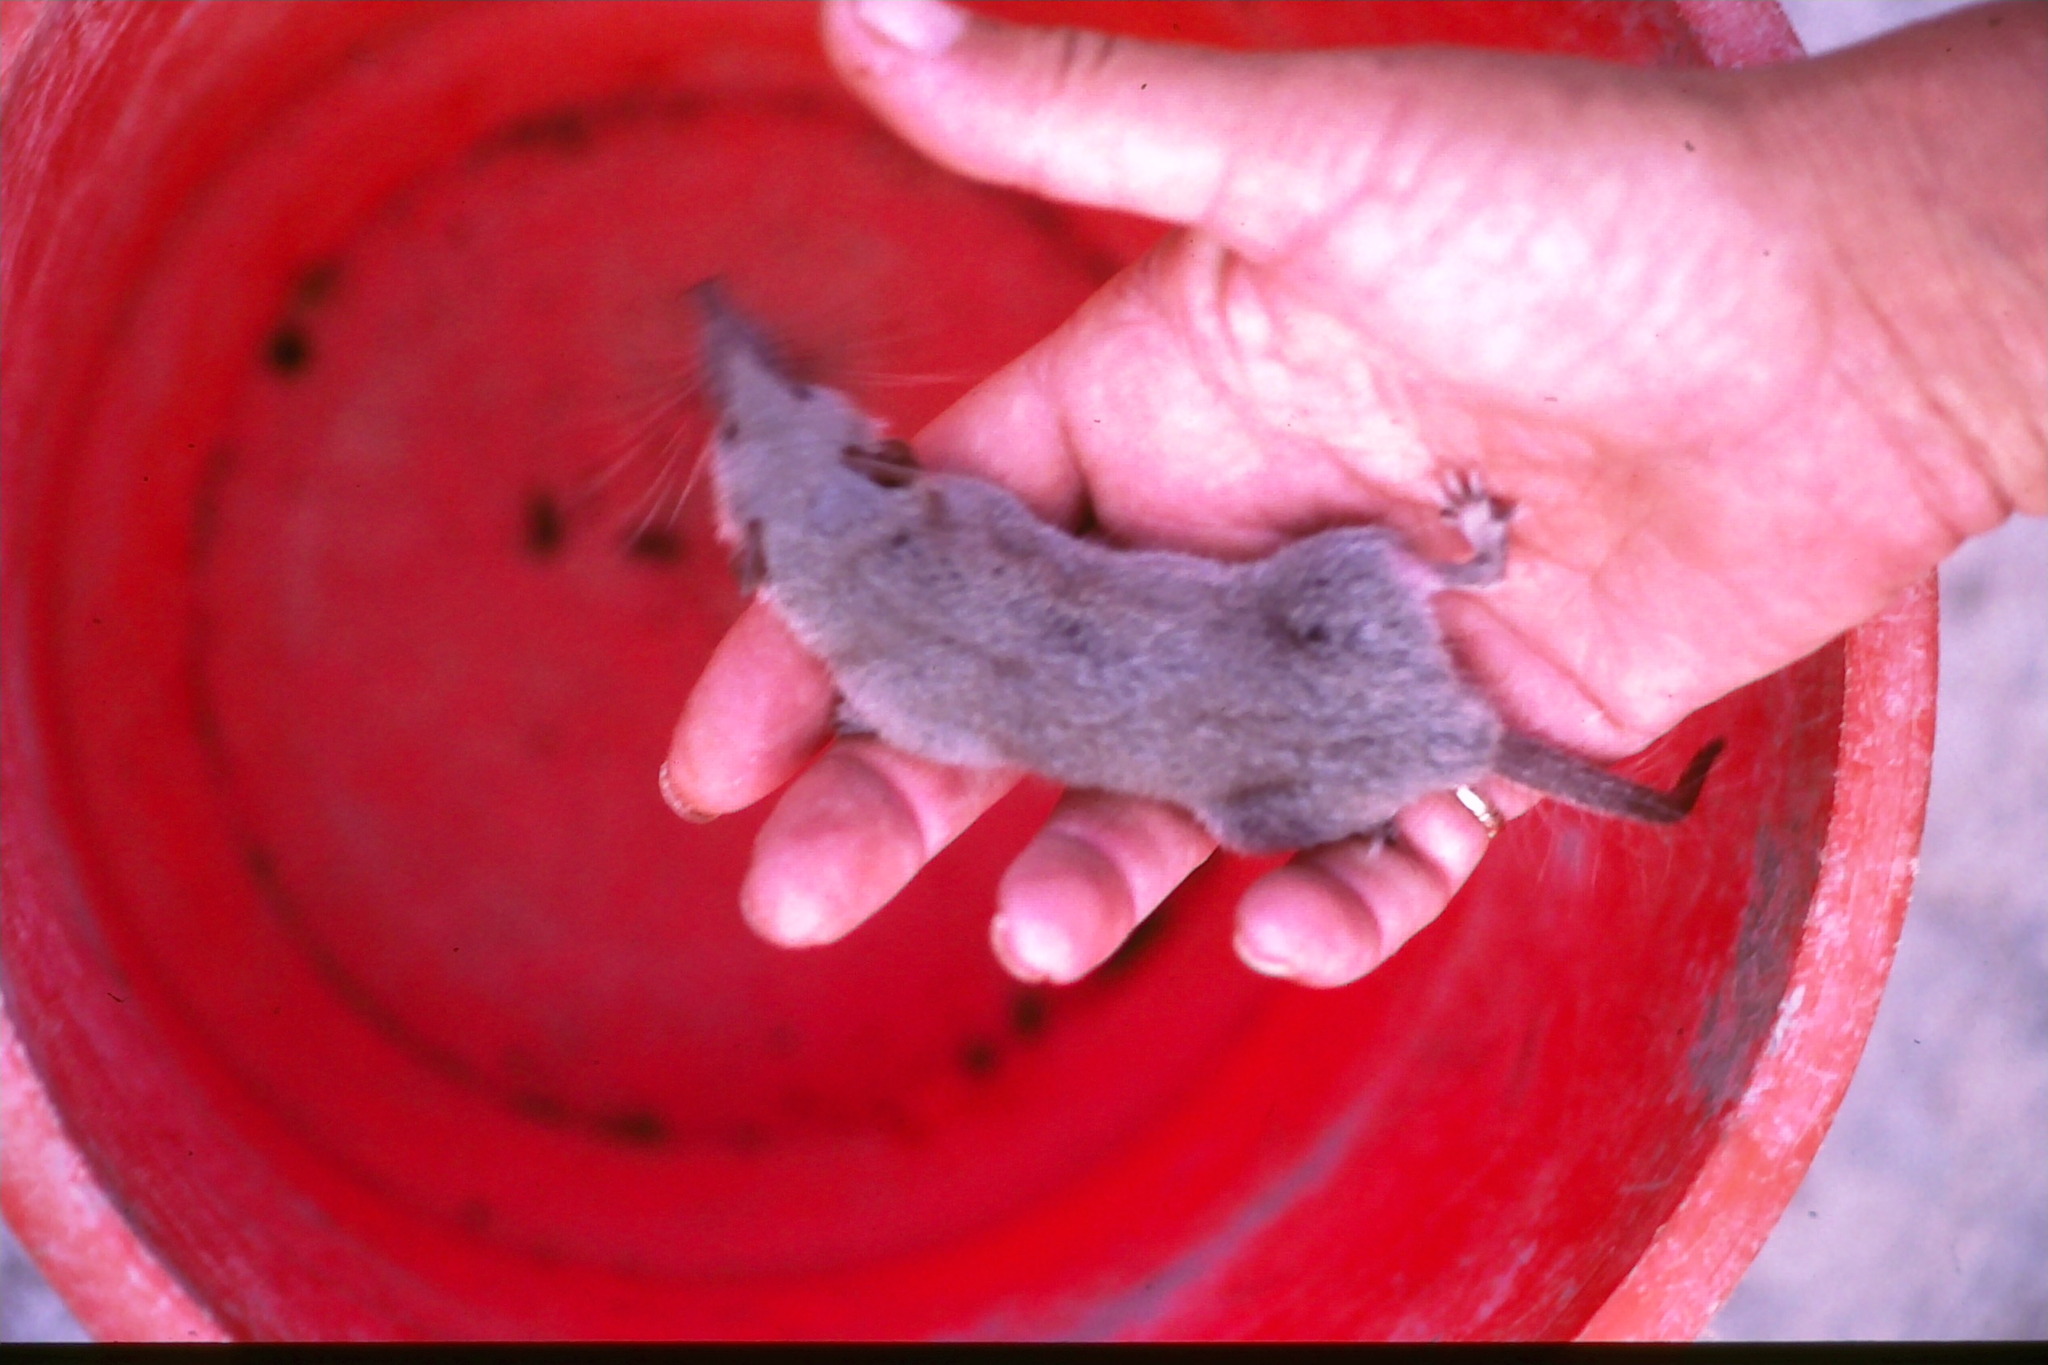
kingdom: Animalia
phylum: Chordata
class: Mammalia
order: Soricomorpha
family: Soricidae
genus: Suncus
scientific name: Suncus murinus
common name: Asian house shrew
